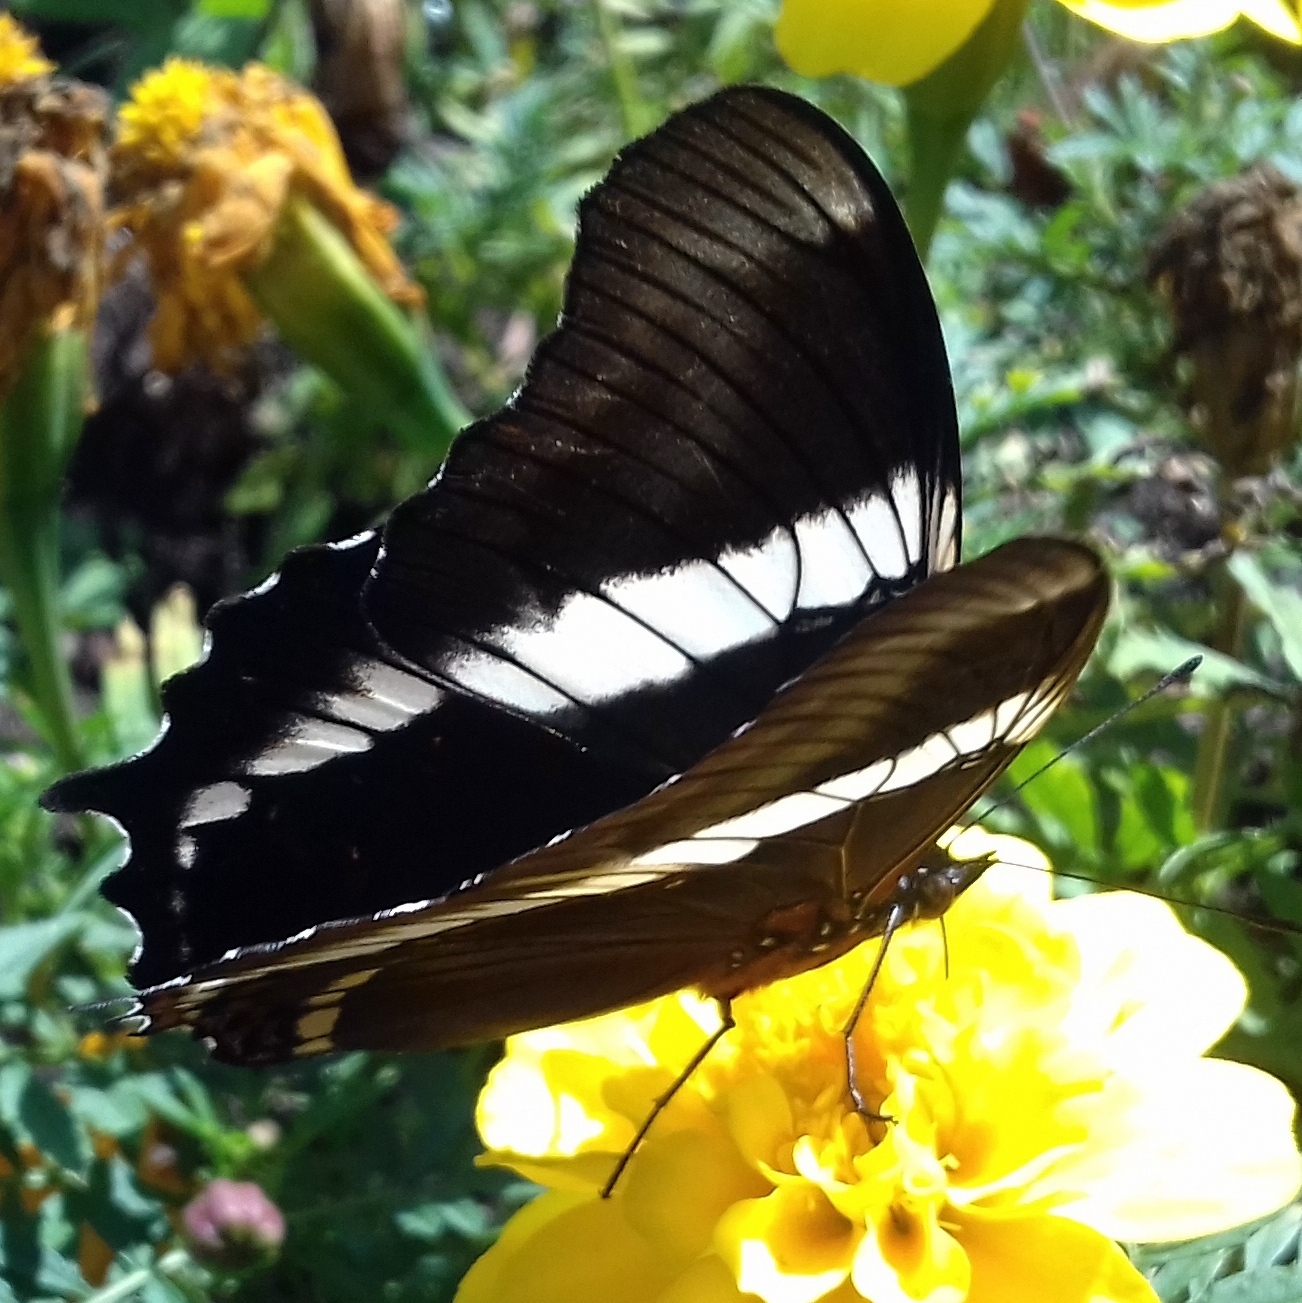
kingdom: Animalia
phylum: Arthropoda
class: Insecta
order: Lepidoptera
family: Nymphalidae
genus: Siproeta
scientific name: Siproeta epaphus
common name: Rusty-tipped page
